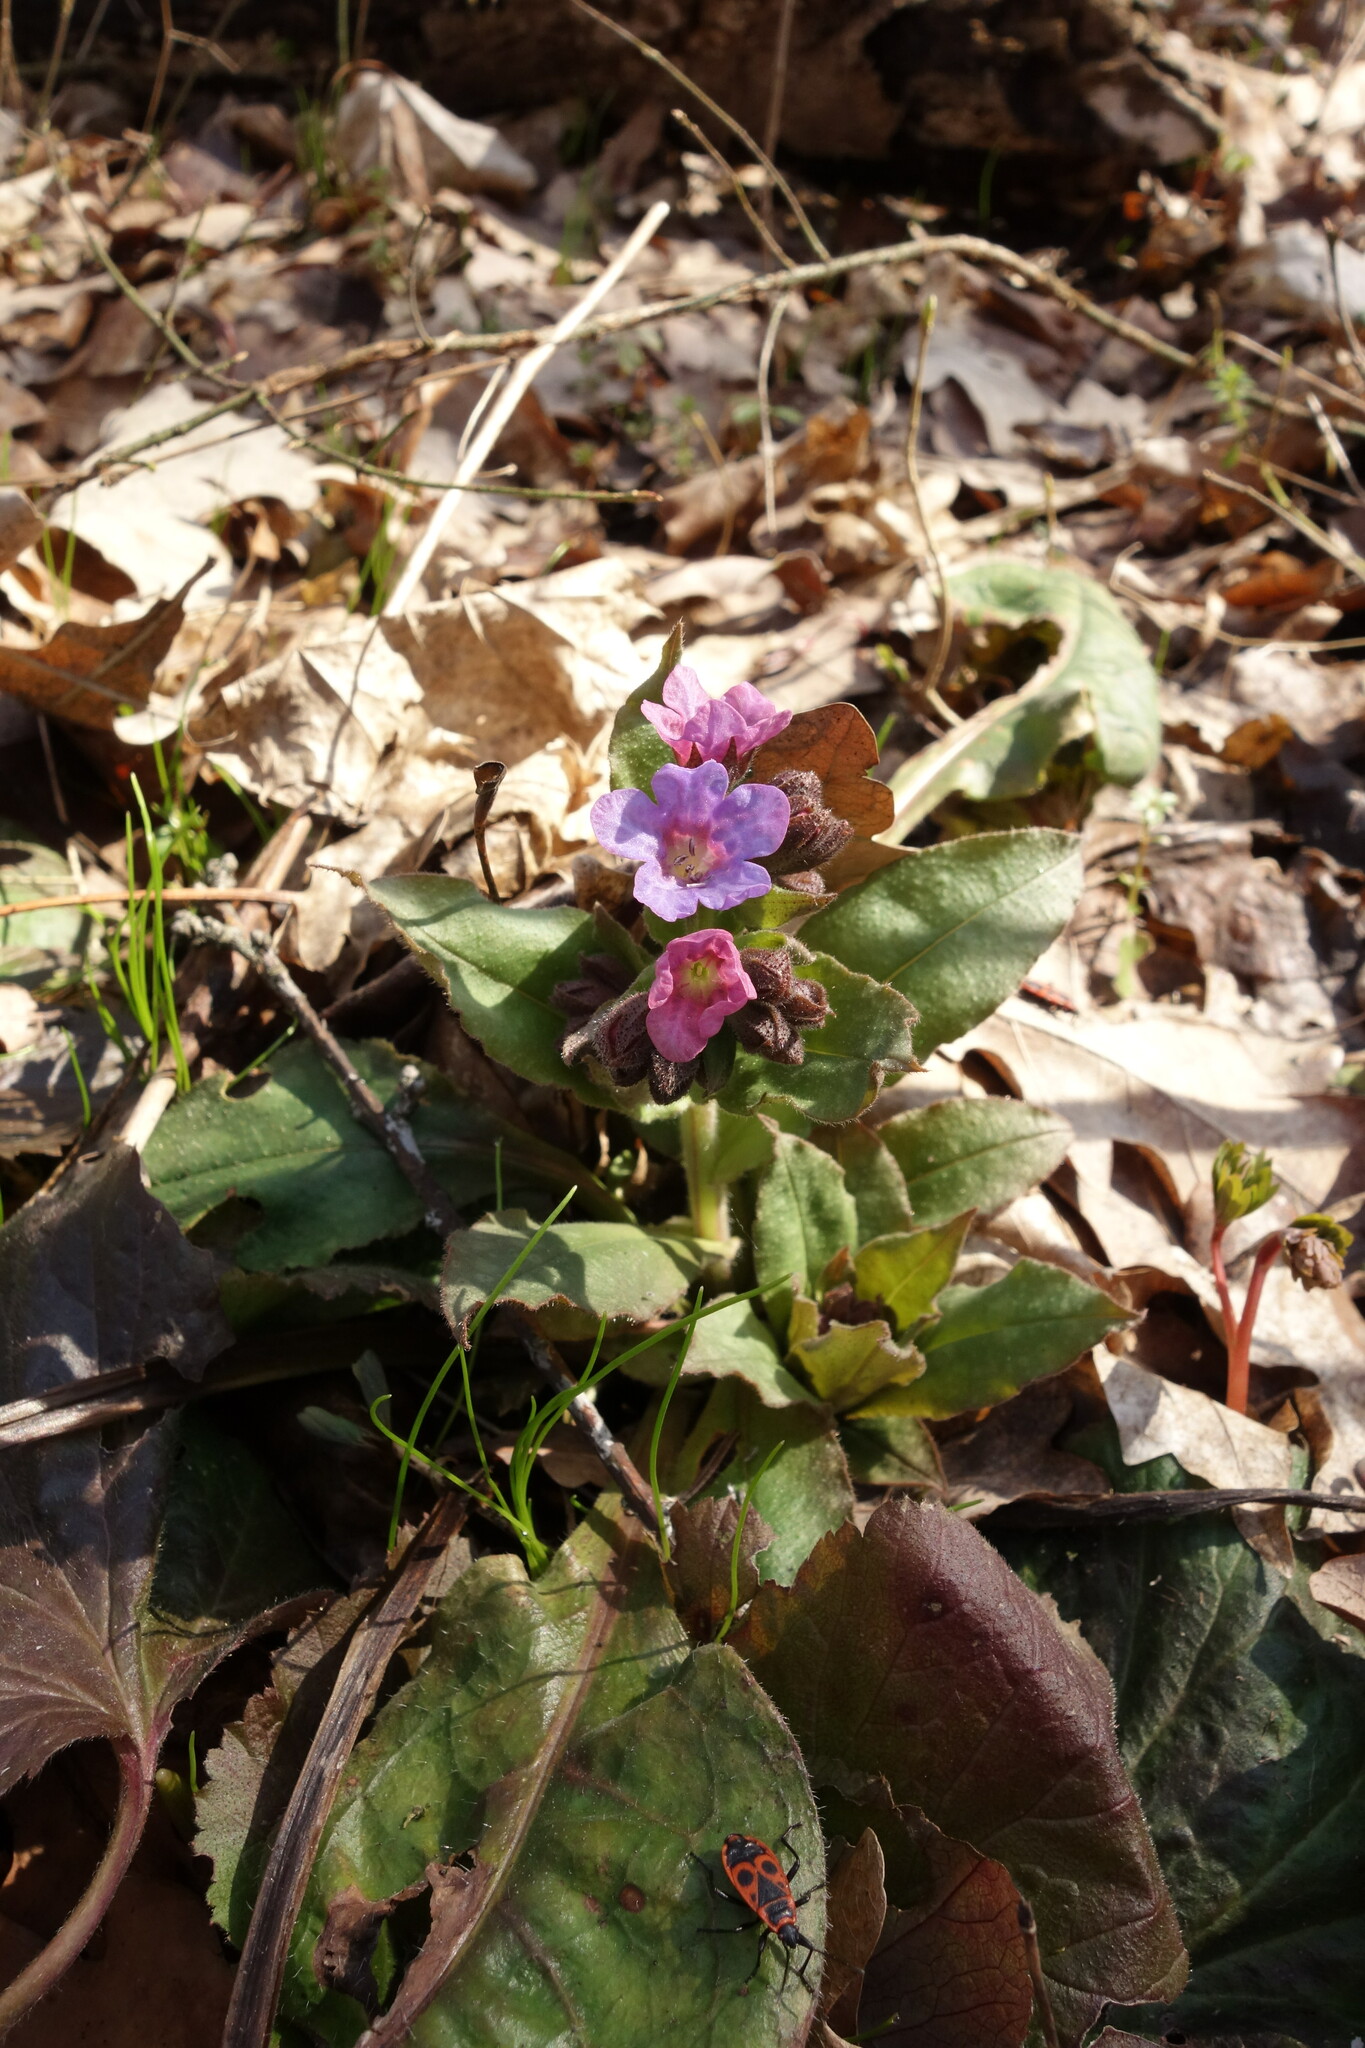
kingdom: Plantae
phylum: Tracheophyta
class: Magnoliopsida
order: Boraginales
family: Boraginaceae
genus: Pulmonaria
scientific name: Pulmonaria obscura
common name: Suffolk lungwort
